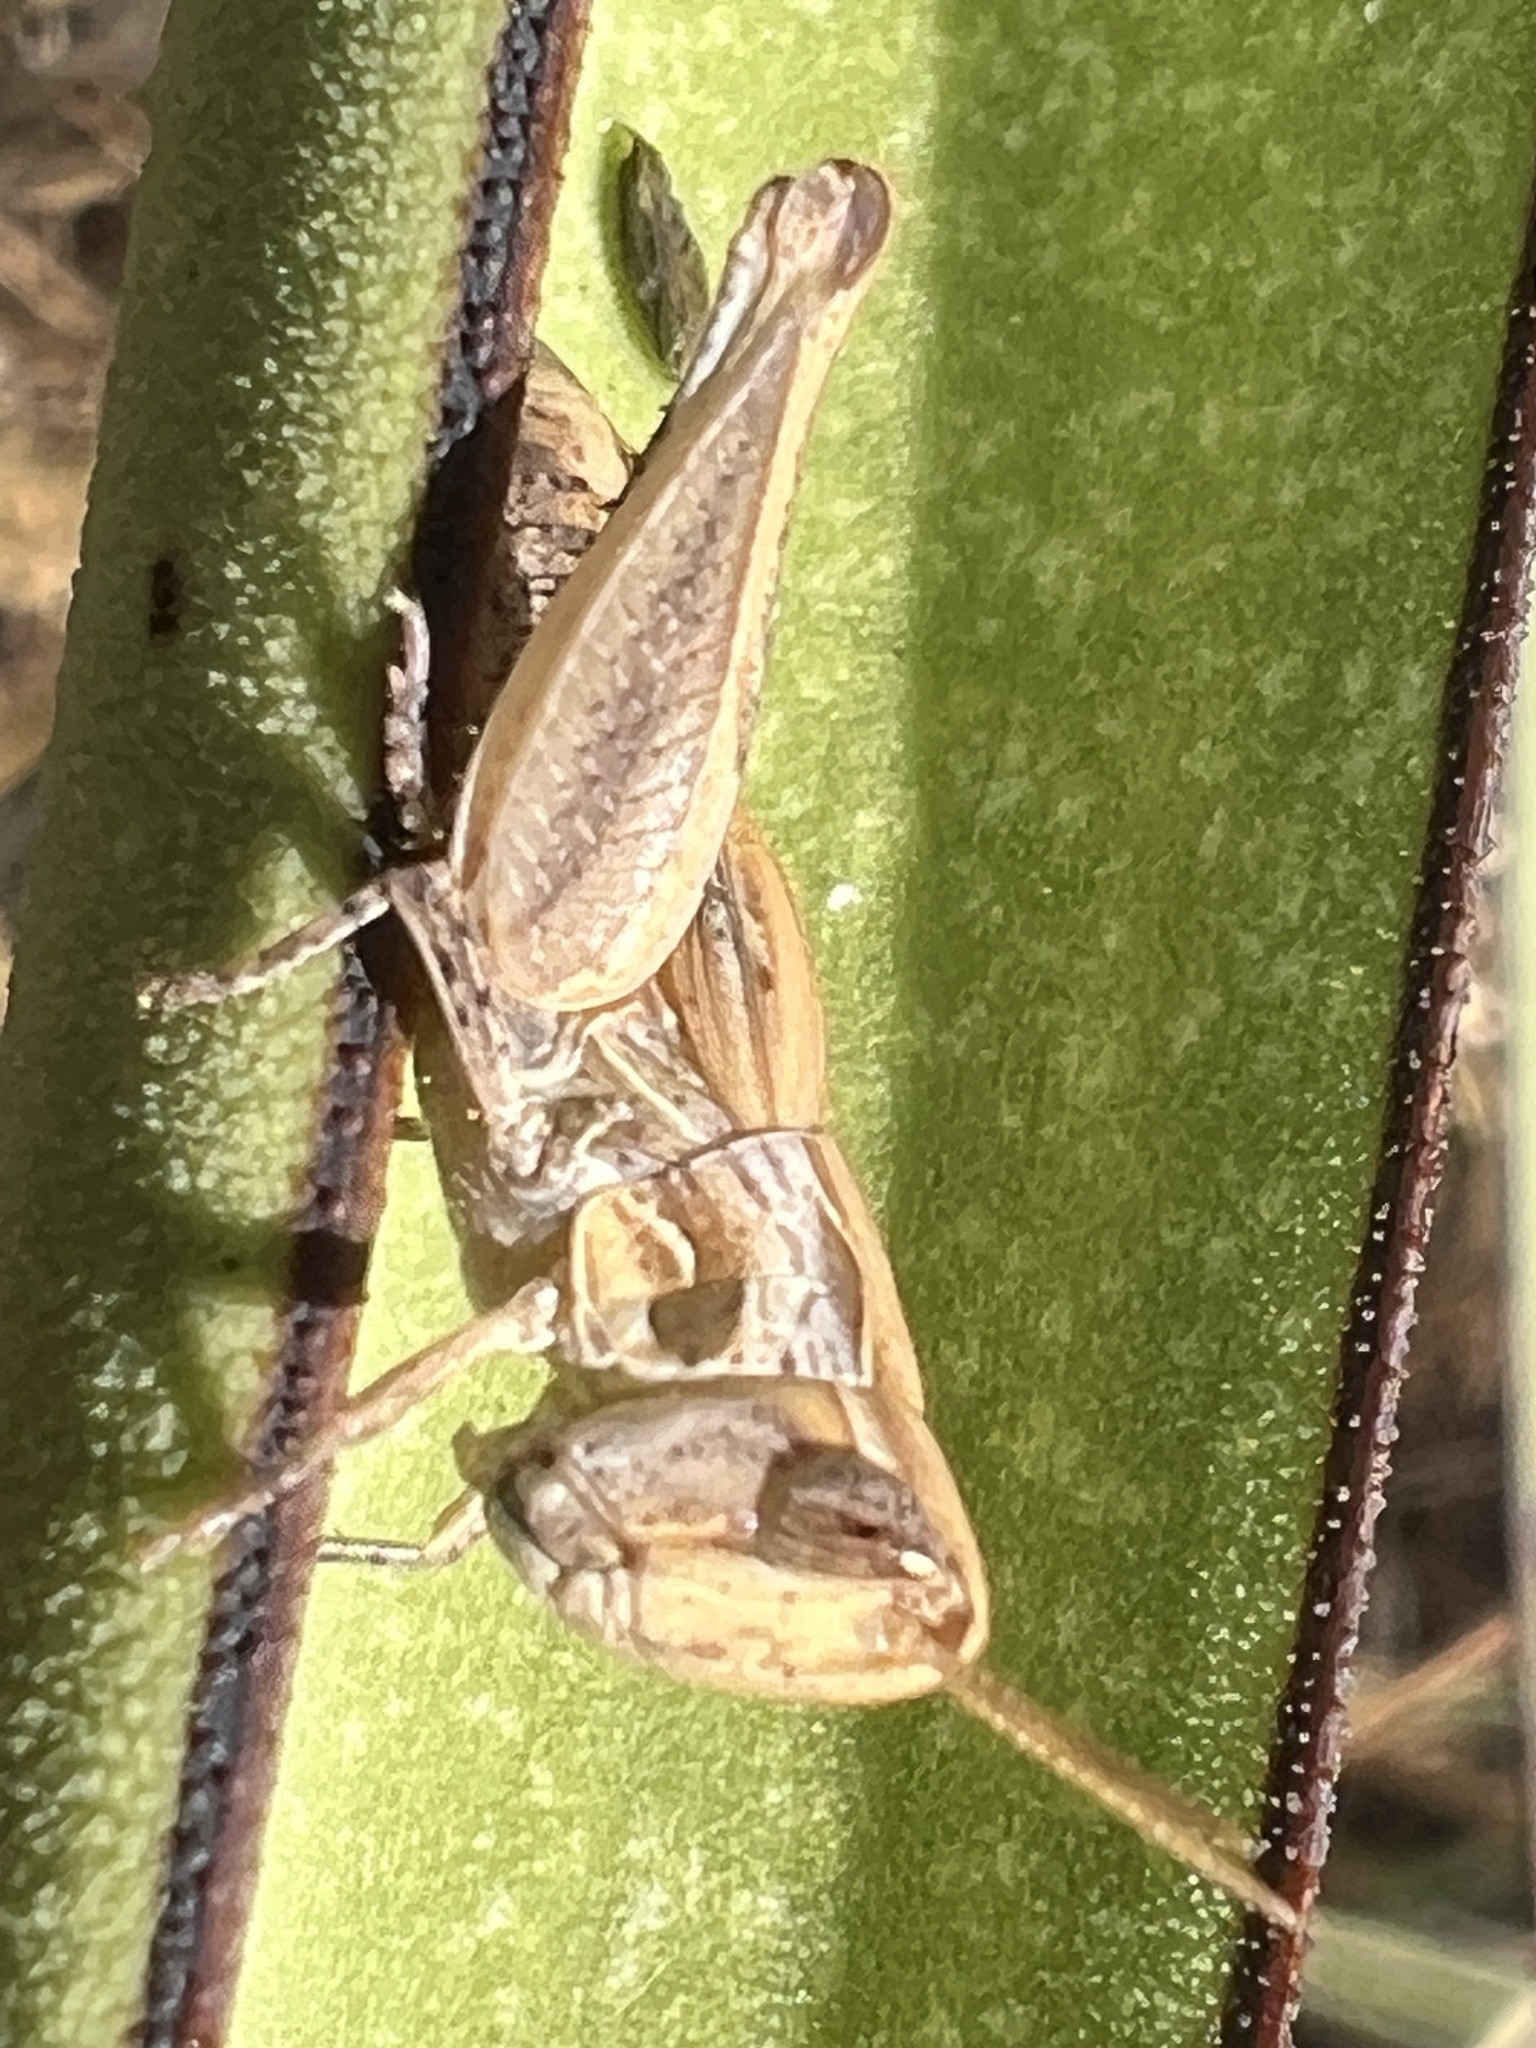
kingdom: Animalia
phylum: Arthropoda
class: Insecta
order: Orthoptera
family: Acrididae
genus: Eritettix
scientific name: Eritettix abortivus
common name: Slant-faced grasshopper
